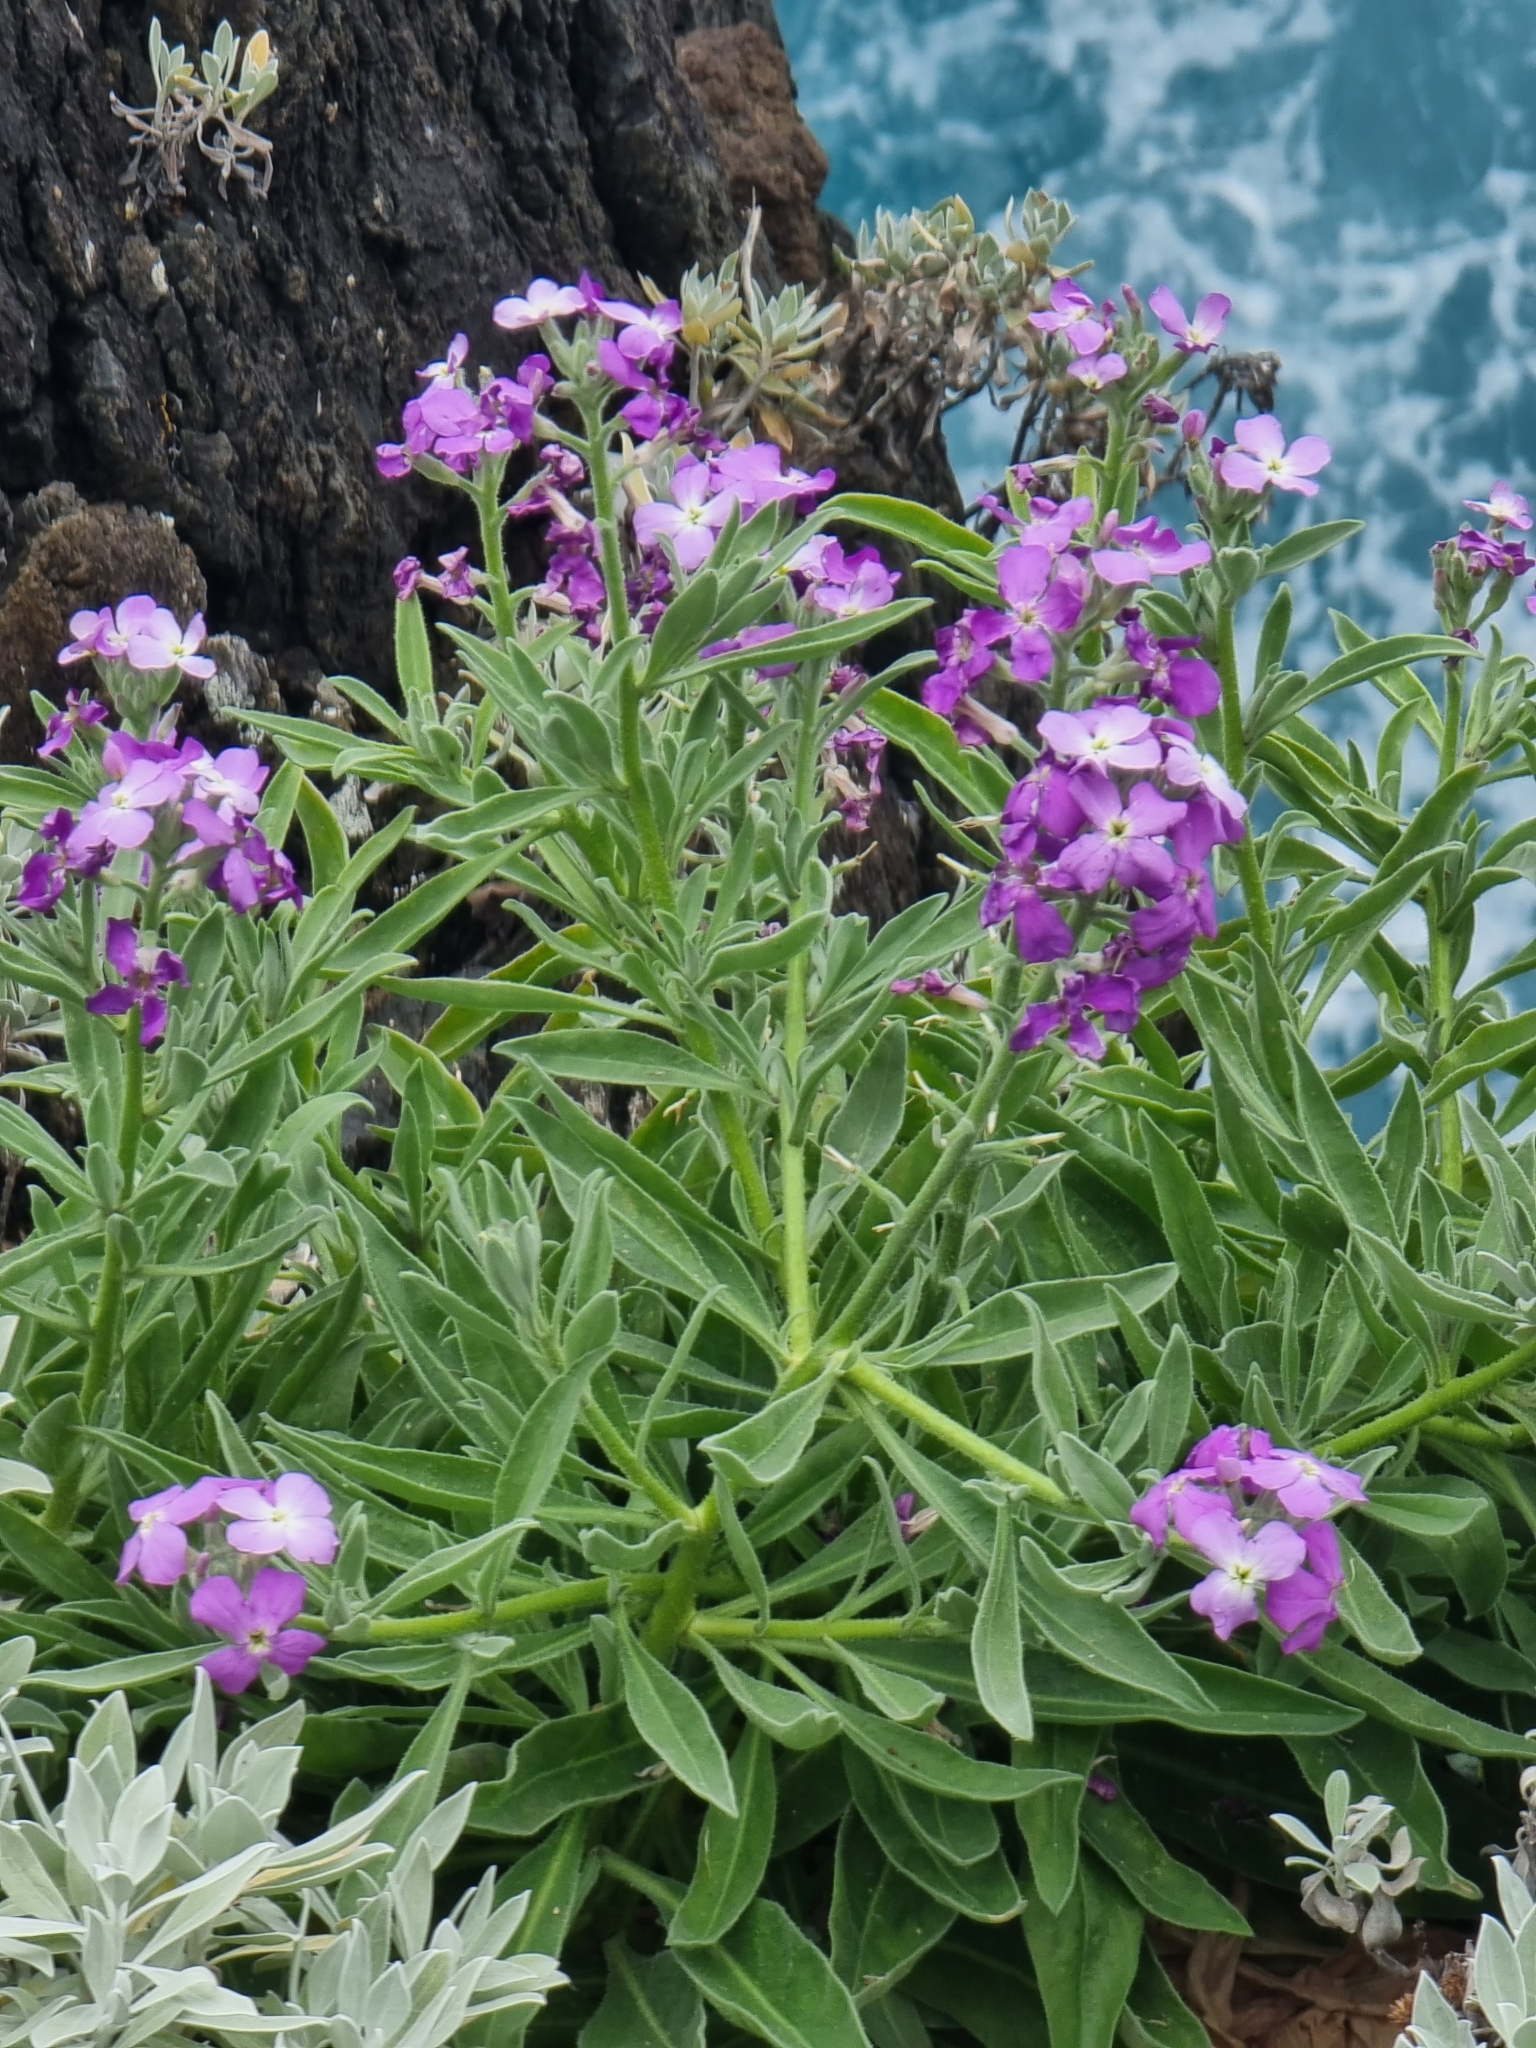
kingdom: Plantae
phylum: Tracheophyta
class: Magnoliopsida
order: Brassicales
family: Brassicaceae
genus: Matthiola
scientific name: Matthiola maderensis
